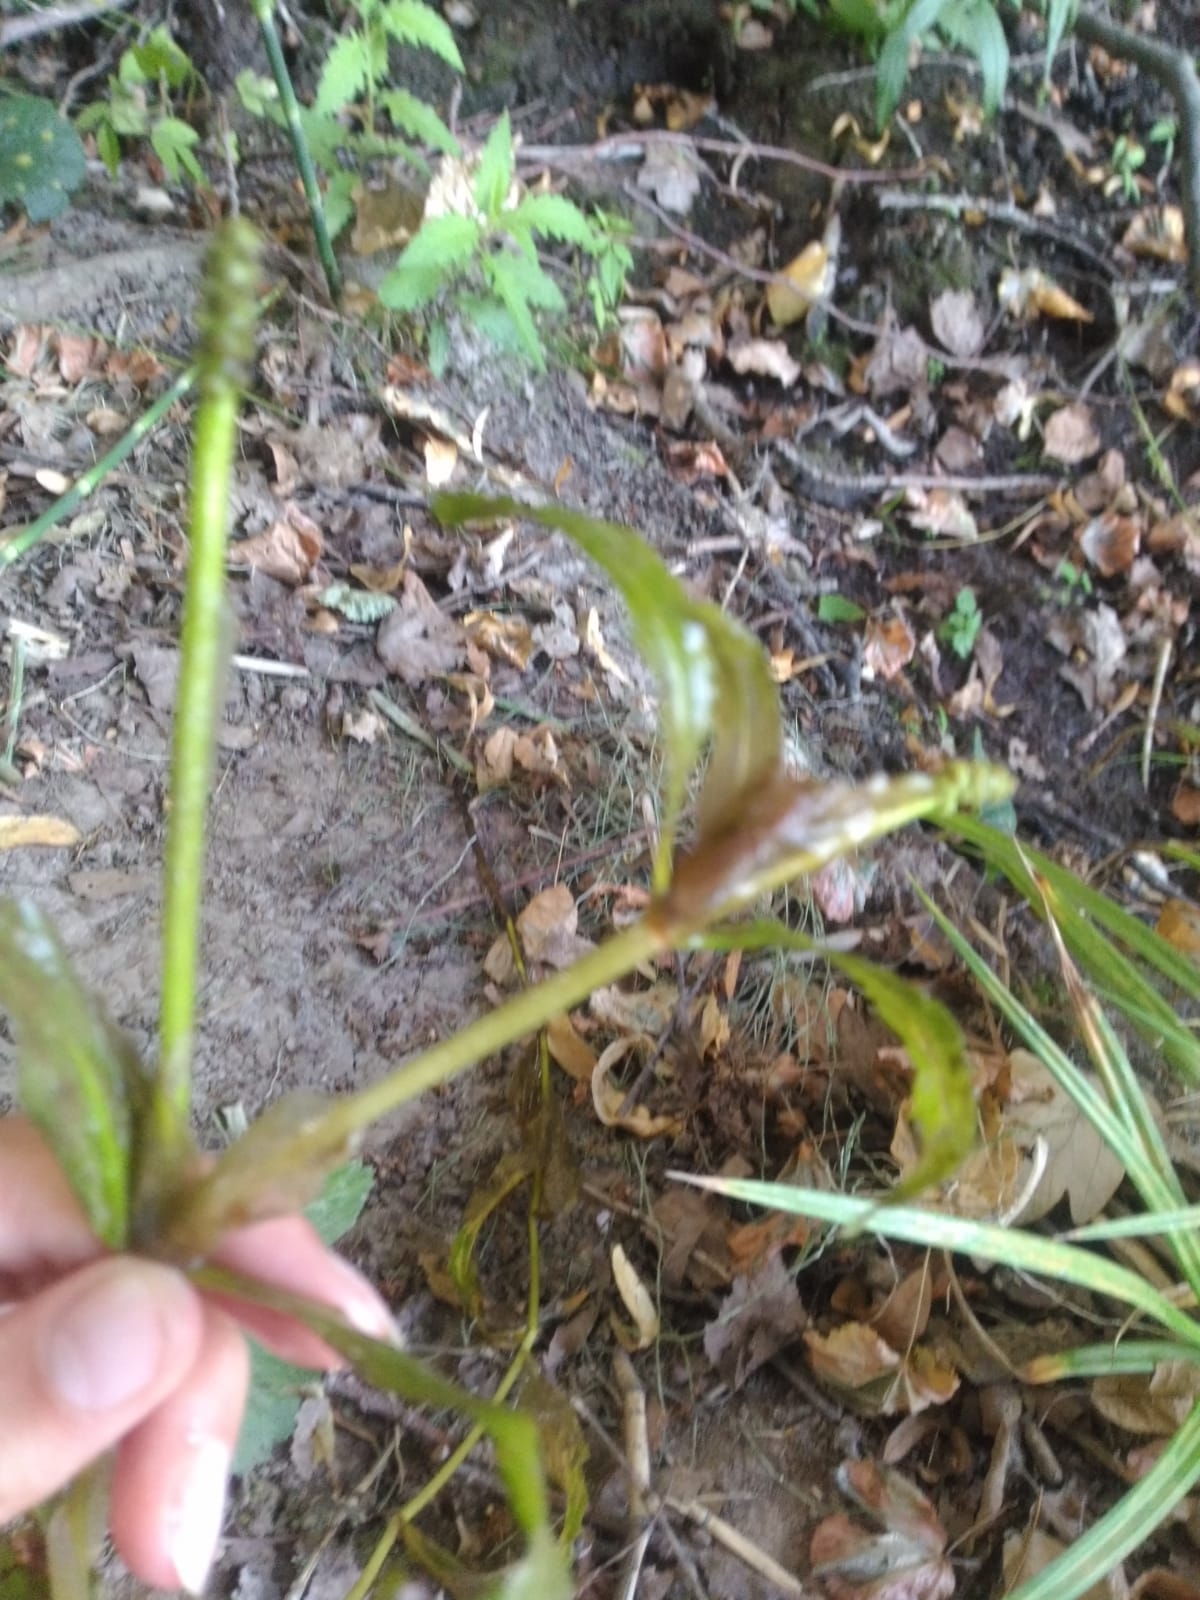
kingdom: Plantae
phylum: Tracheophyta
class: Liliopsida
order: Alismatales
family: Potamogetonaceae
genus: Potamogeton
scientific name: Potamogeton lucens
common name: Shining pondweed
